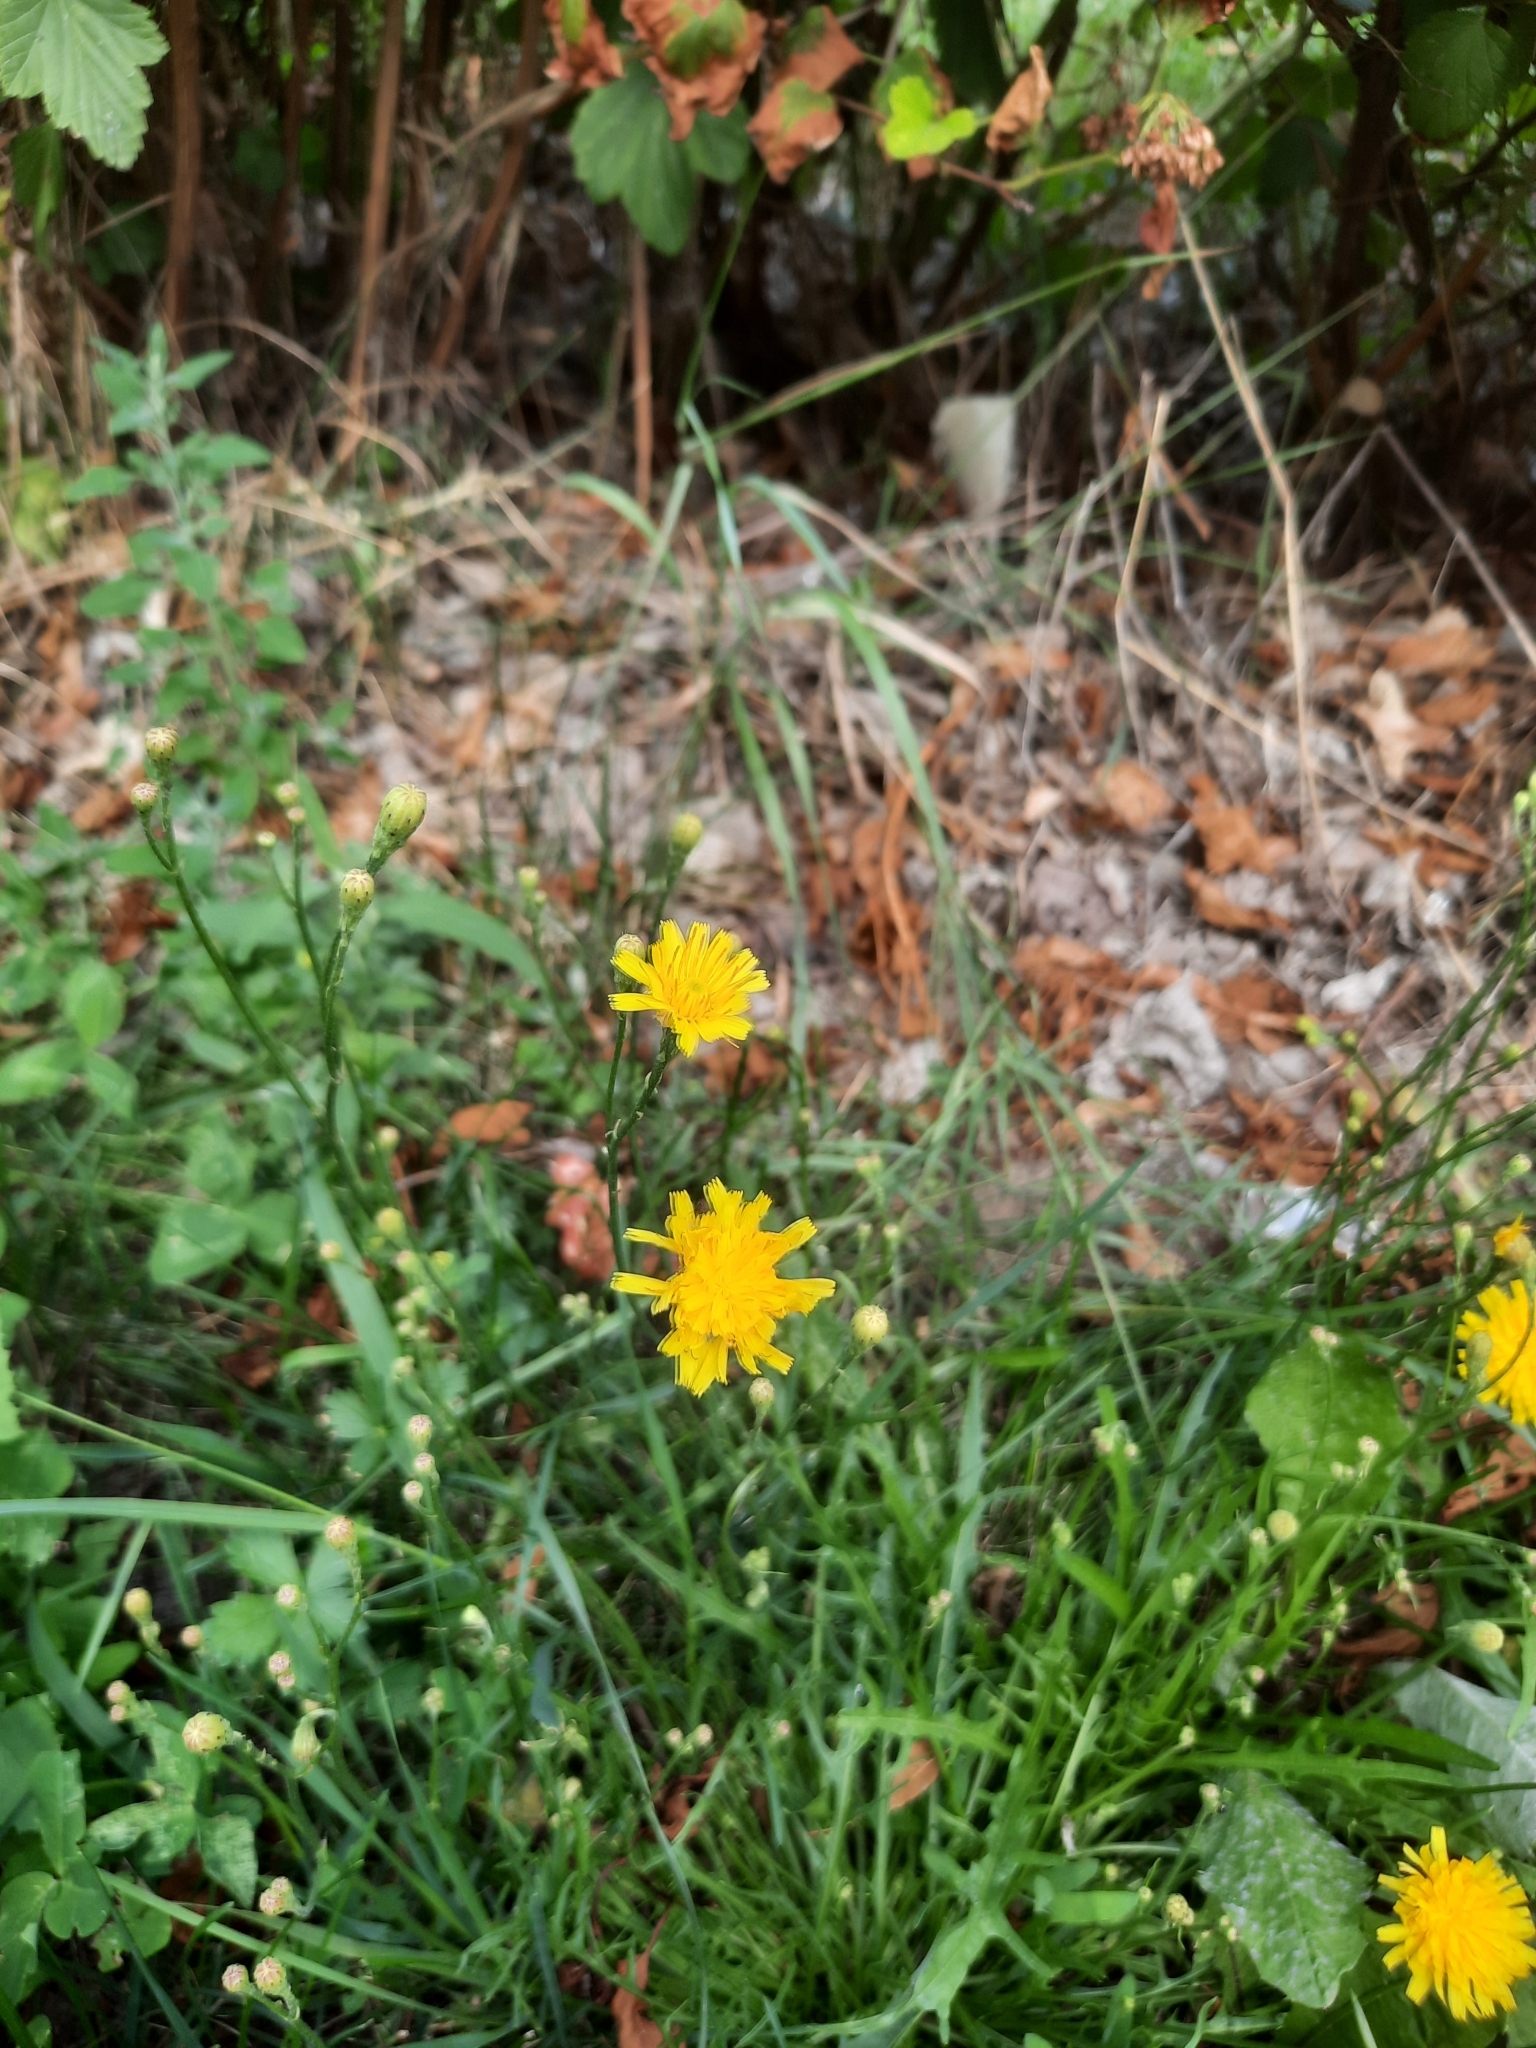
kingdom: Plantae
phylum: Tracheophyta
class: Magnoliopsida
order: Asterales
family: Asteraceae
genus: Scorzoneroides
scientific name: Scorzoneroides autumnalis
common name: Autumn hawkbit
